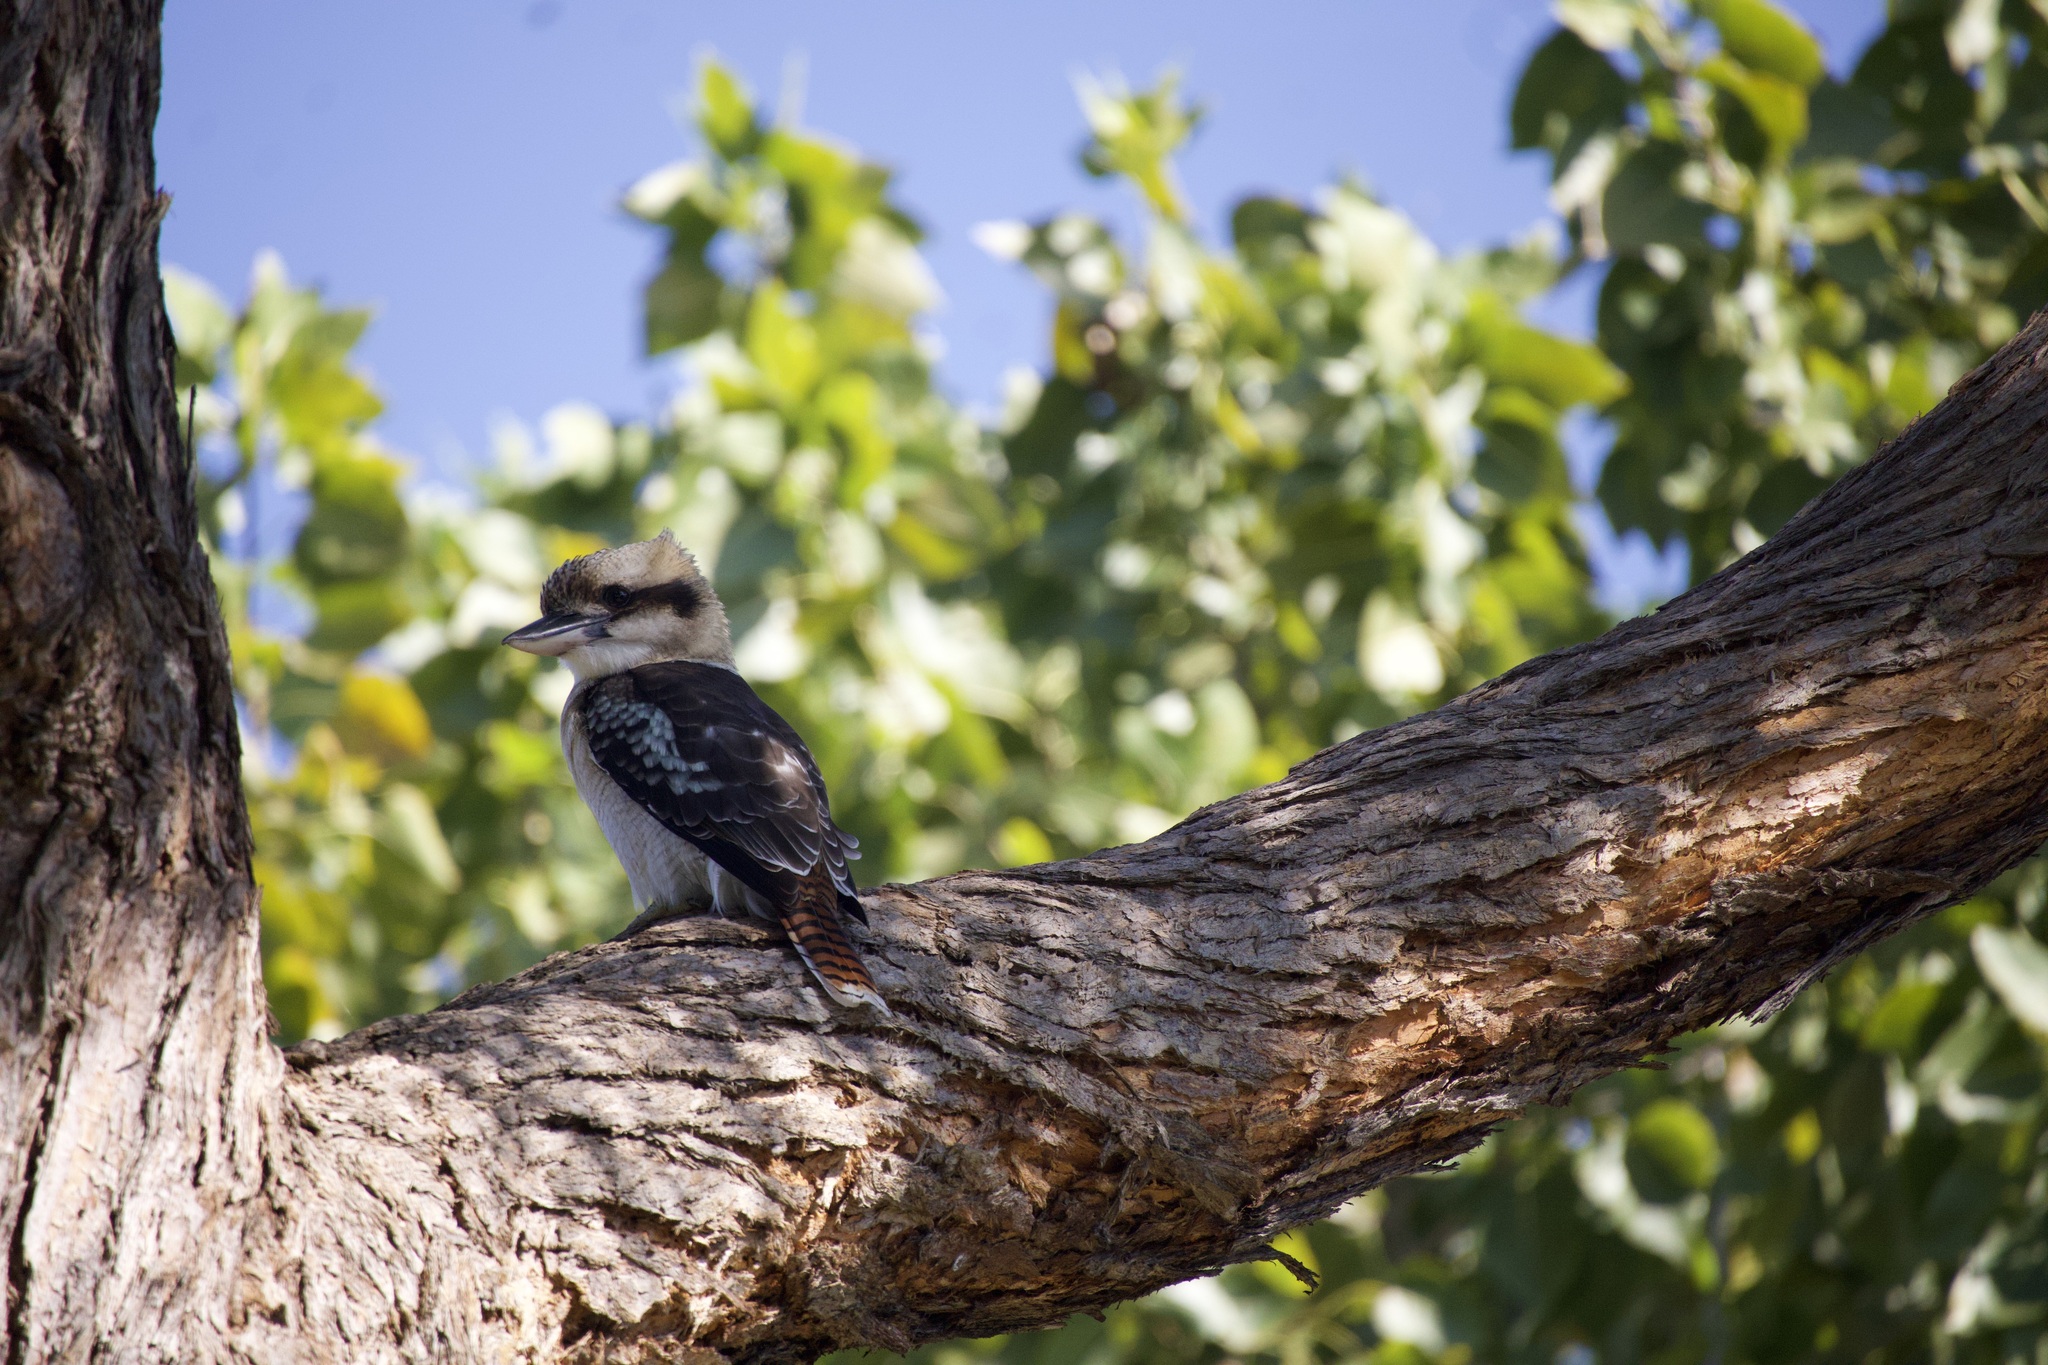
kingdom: Animalia
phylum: Chordata
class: Aves
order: Coraciiformes
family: Alcedinidae
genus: Dacelo
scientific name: Dacelo novaeguineae
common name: Laughing kookaburra
